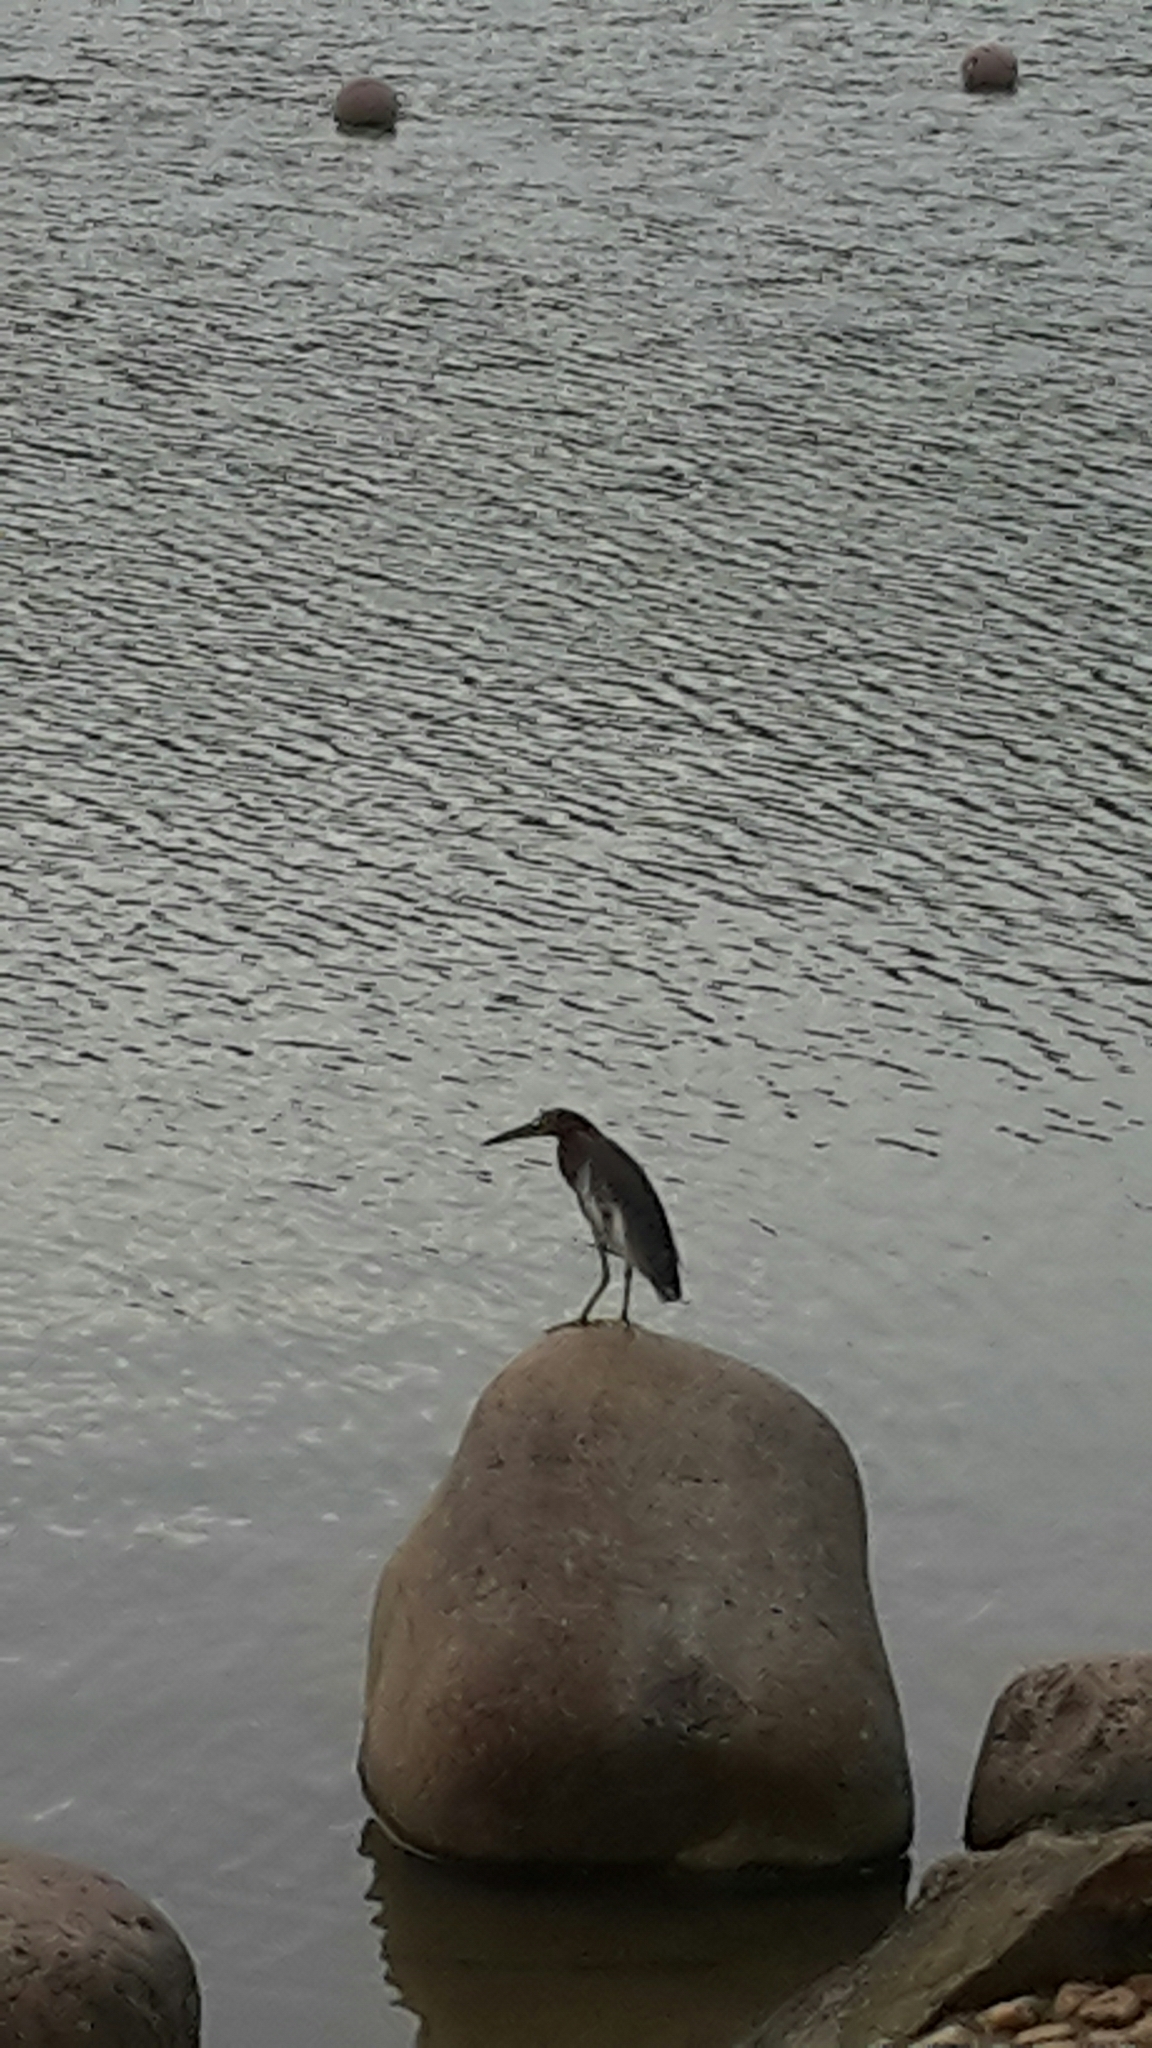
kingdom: Animalia
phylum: Chordata
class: Aves
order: Pelecaniformes
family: Ardeidae
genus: Ardeola
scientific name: Ardeola bacchus
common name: Chinese pond heron
